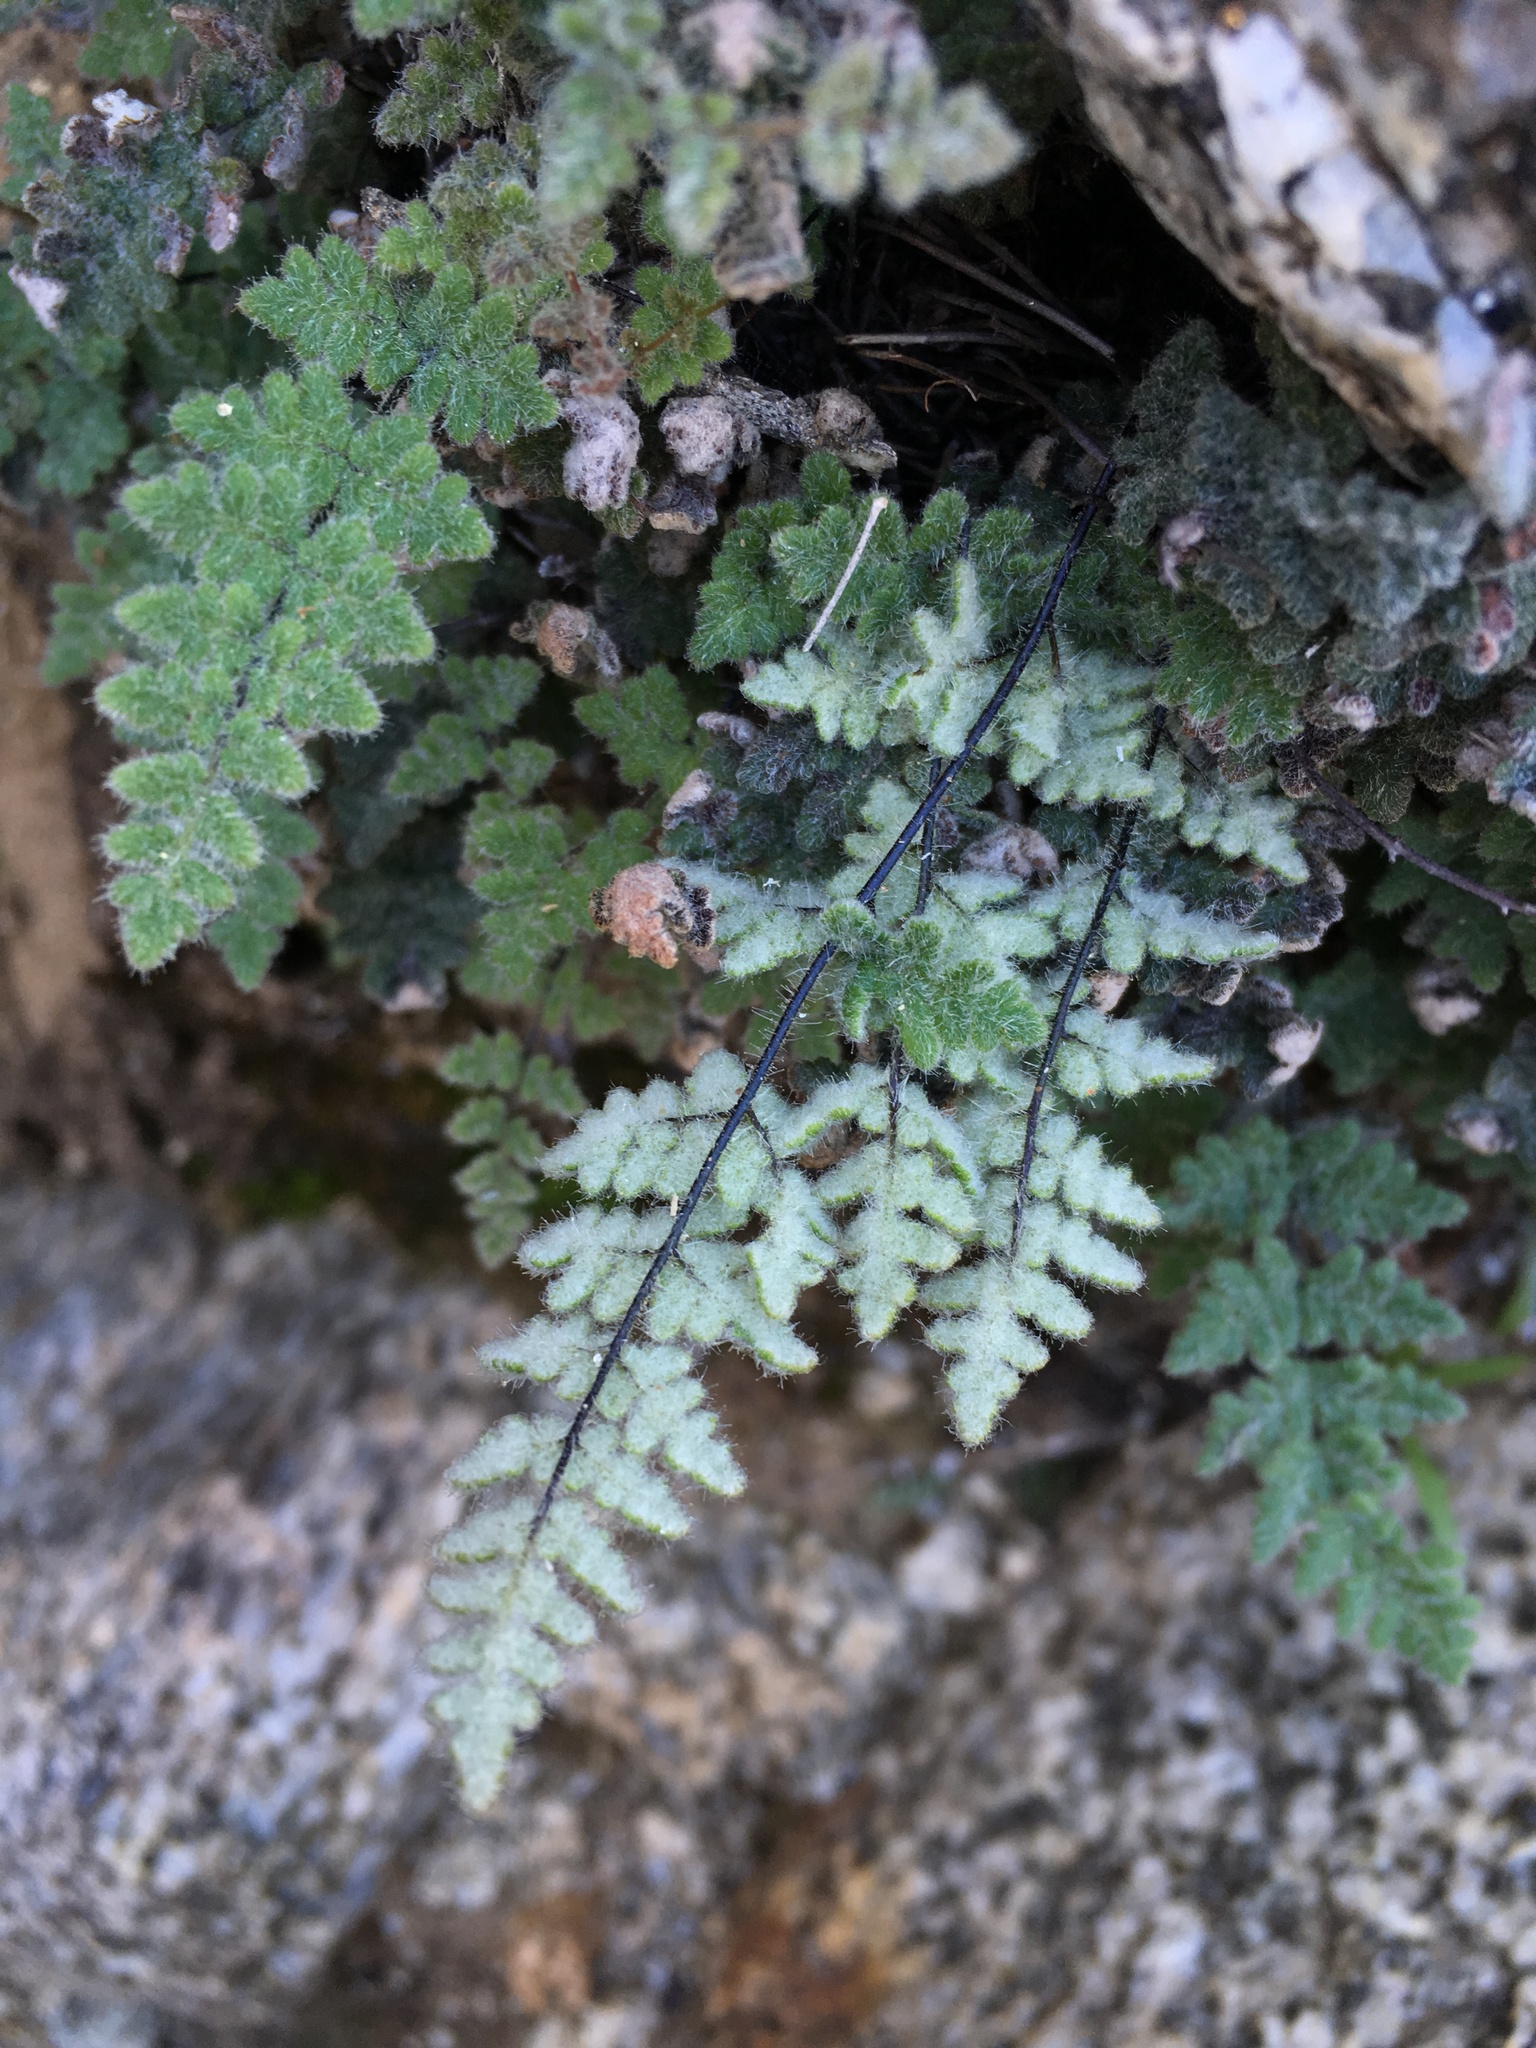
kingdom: Plantae
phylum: Tracheophyta
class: Polypodiopsida
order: Polypodiales
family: Pteridaceae
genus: Myriopteris
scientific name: Myriopteris parryi
